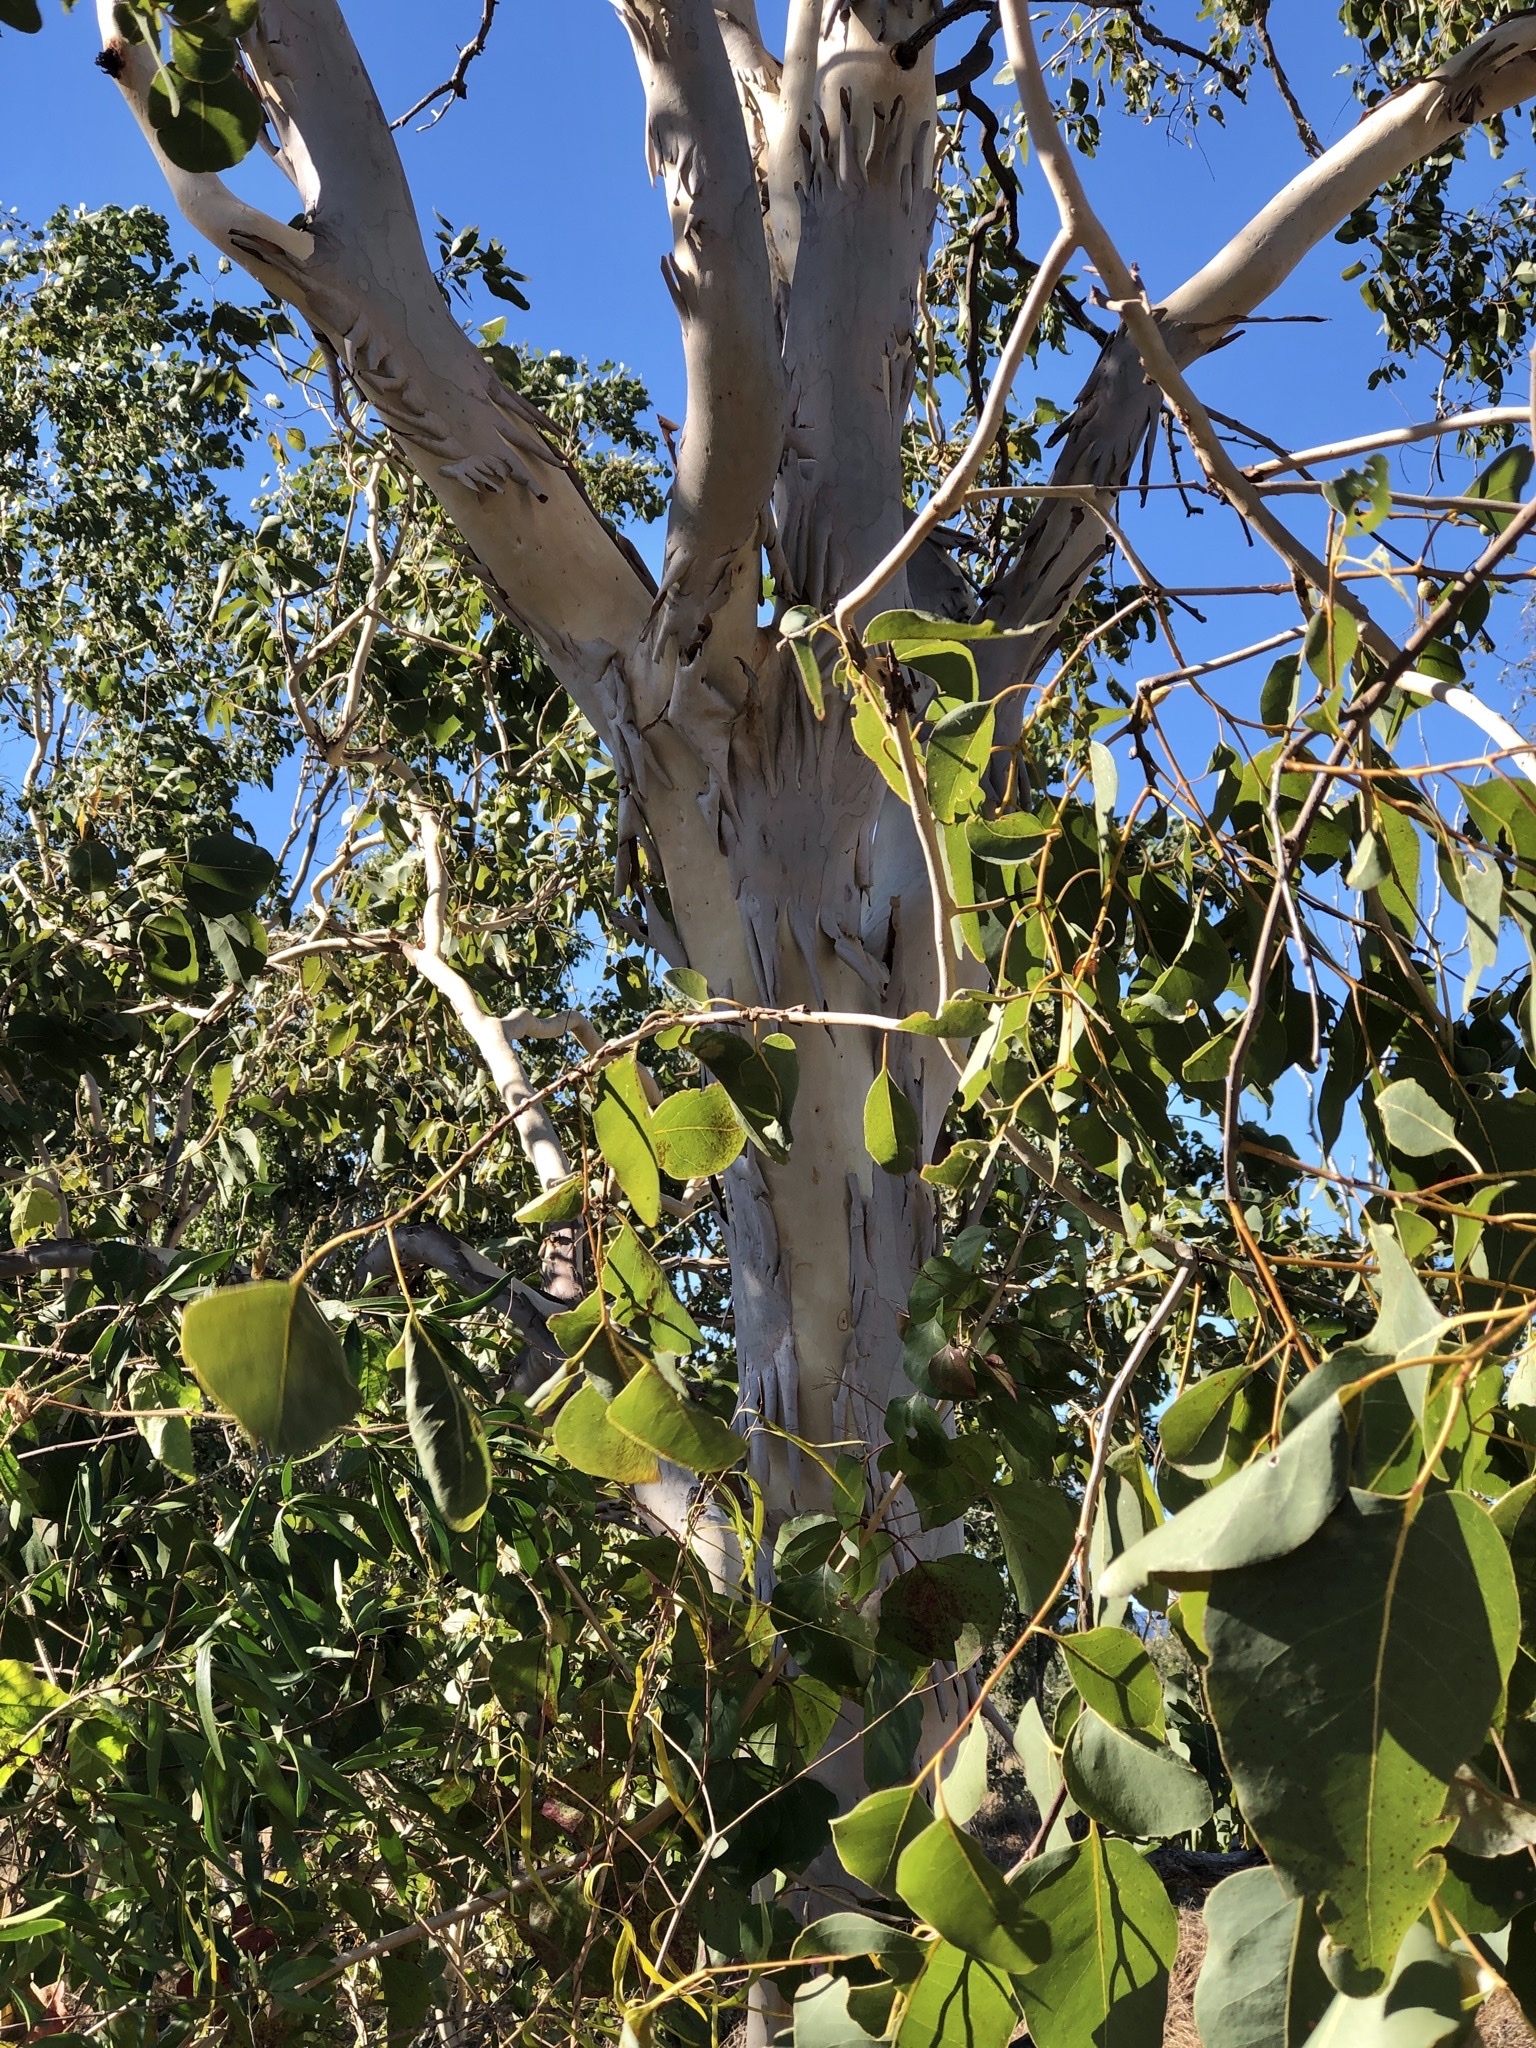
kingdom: Plantae
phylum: Tracheophyta
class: Magnoliopsida
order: Myrtales
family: Myrtaceae
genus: Eucalyptus
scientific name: Eucalyptus platyphylla
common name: Poplar-gum
